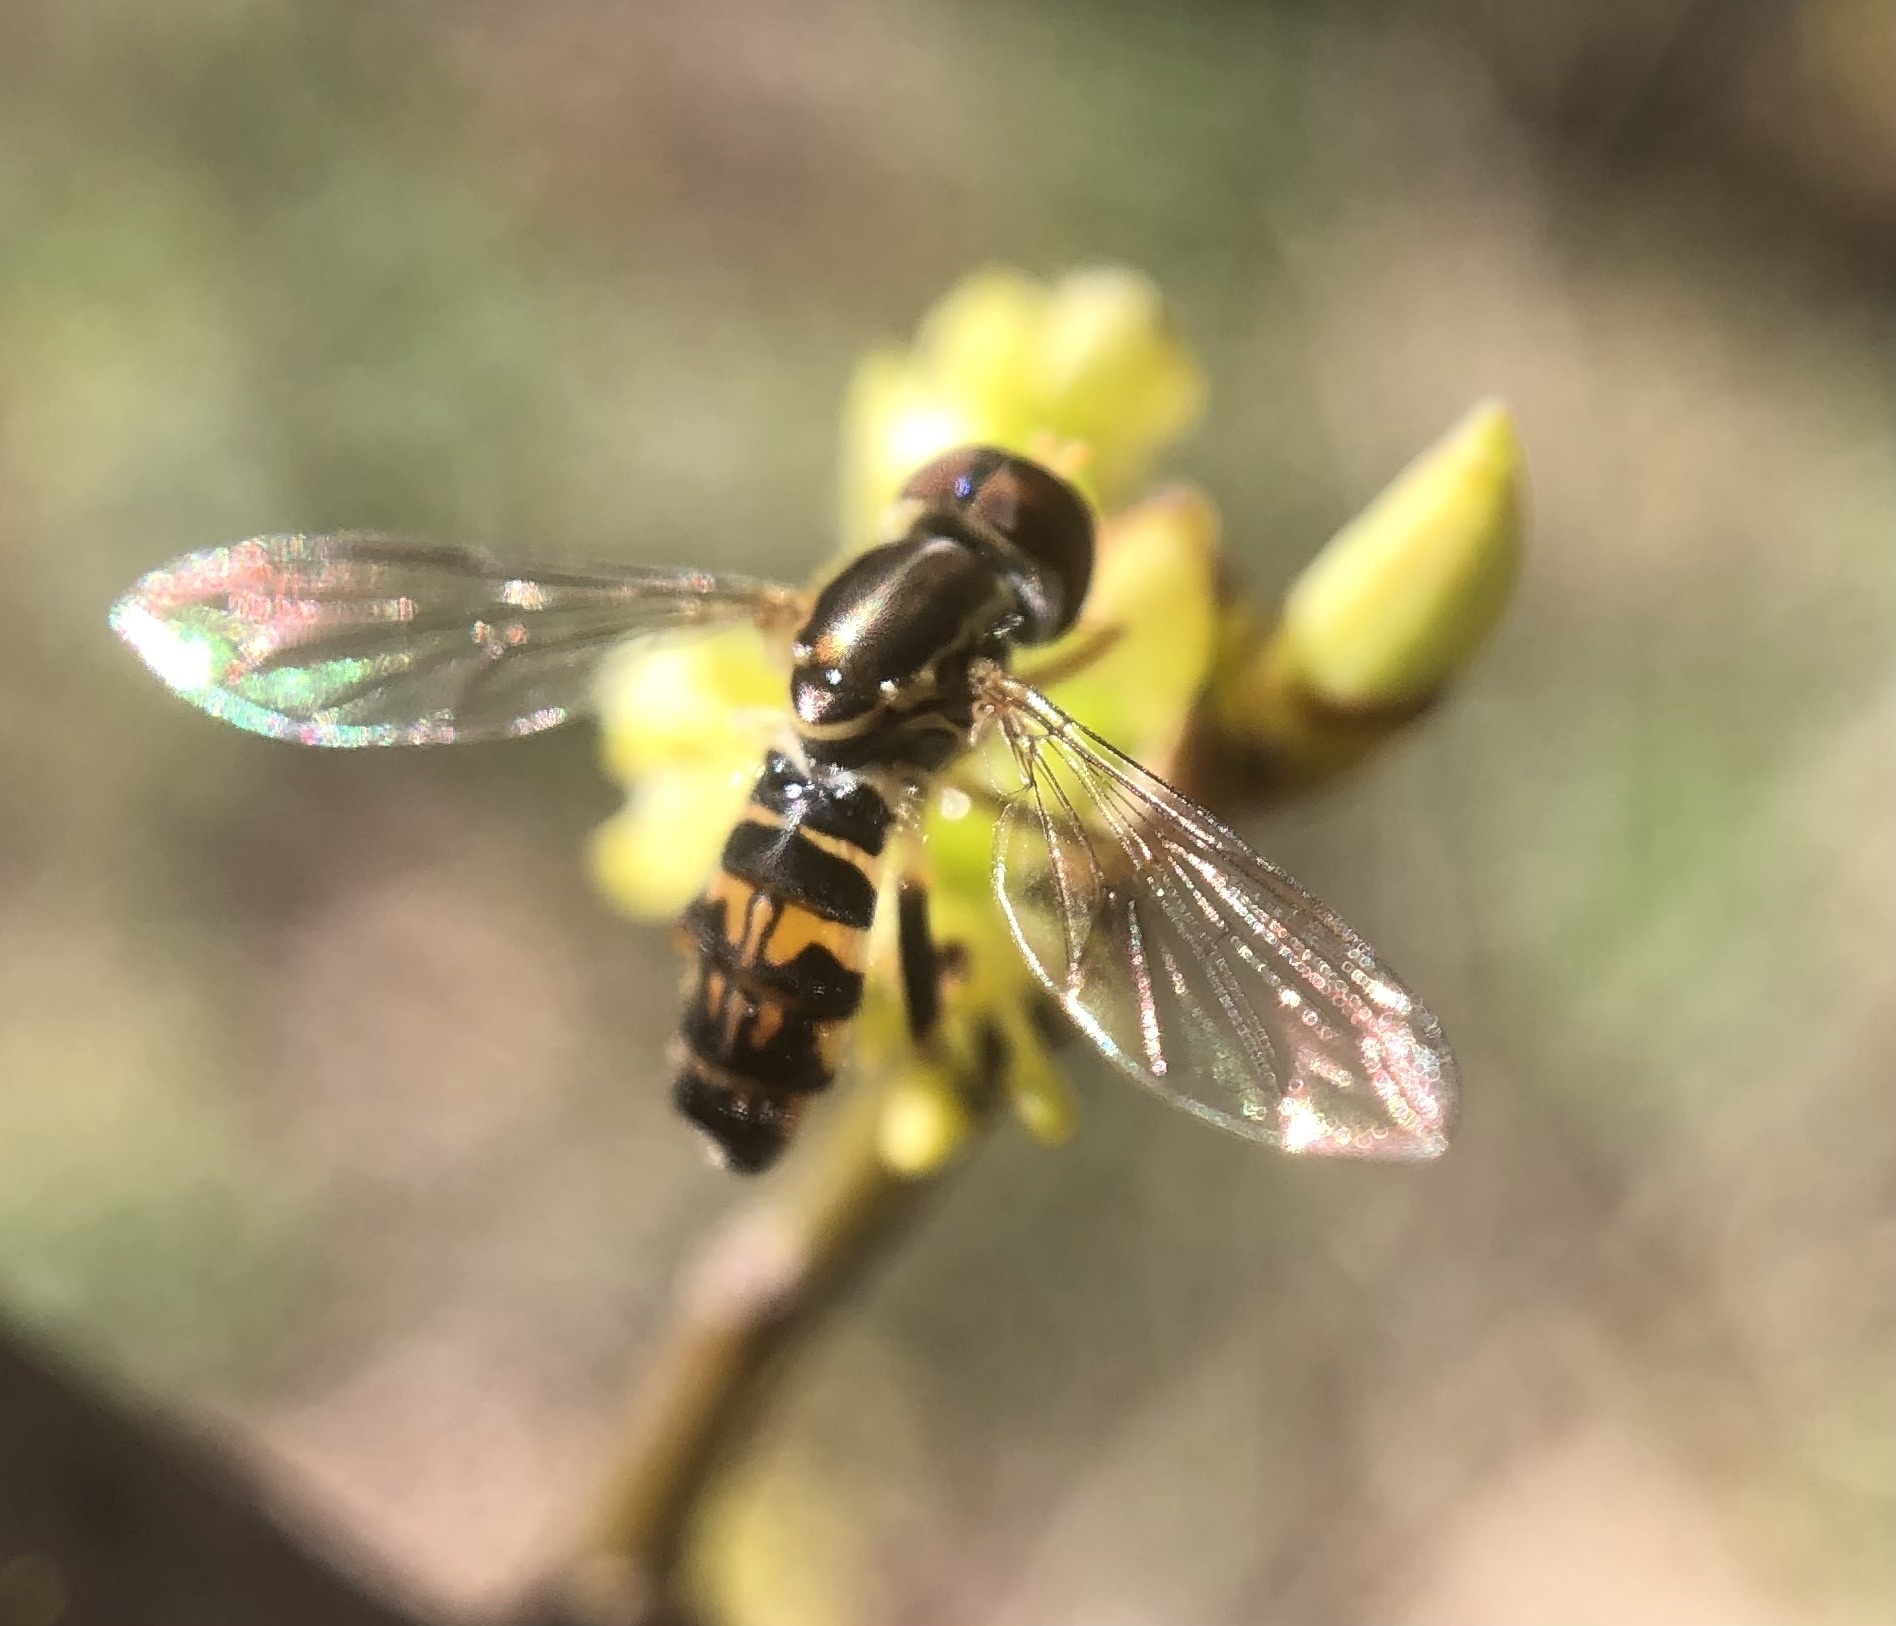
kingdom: Animalia
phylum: Arthropoda
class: Insecta
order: Diptera
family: Syrphidae
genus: Toxomerus
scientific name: Toxomerus geminatus
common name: Eastern calligrapher
